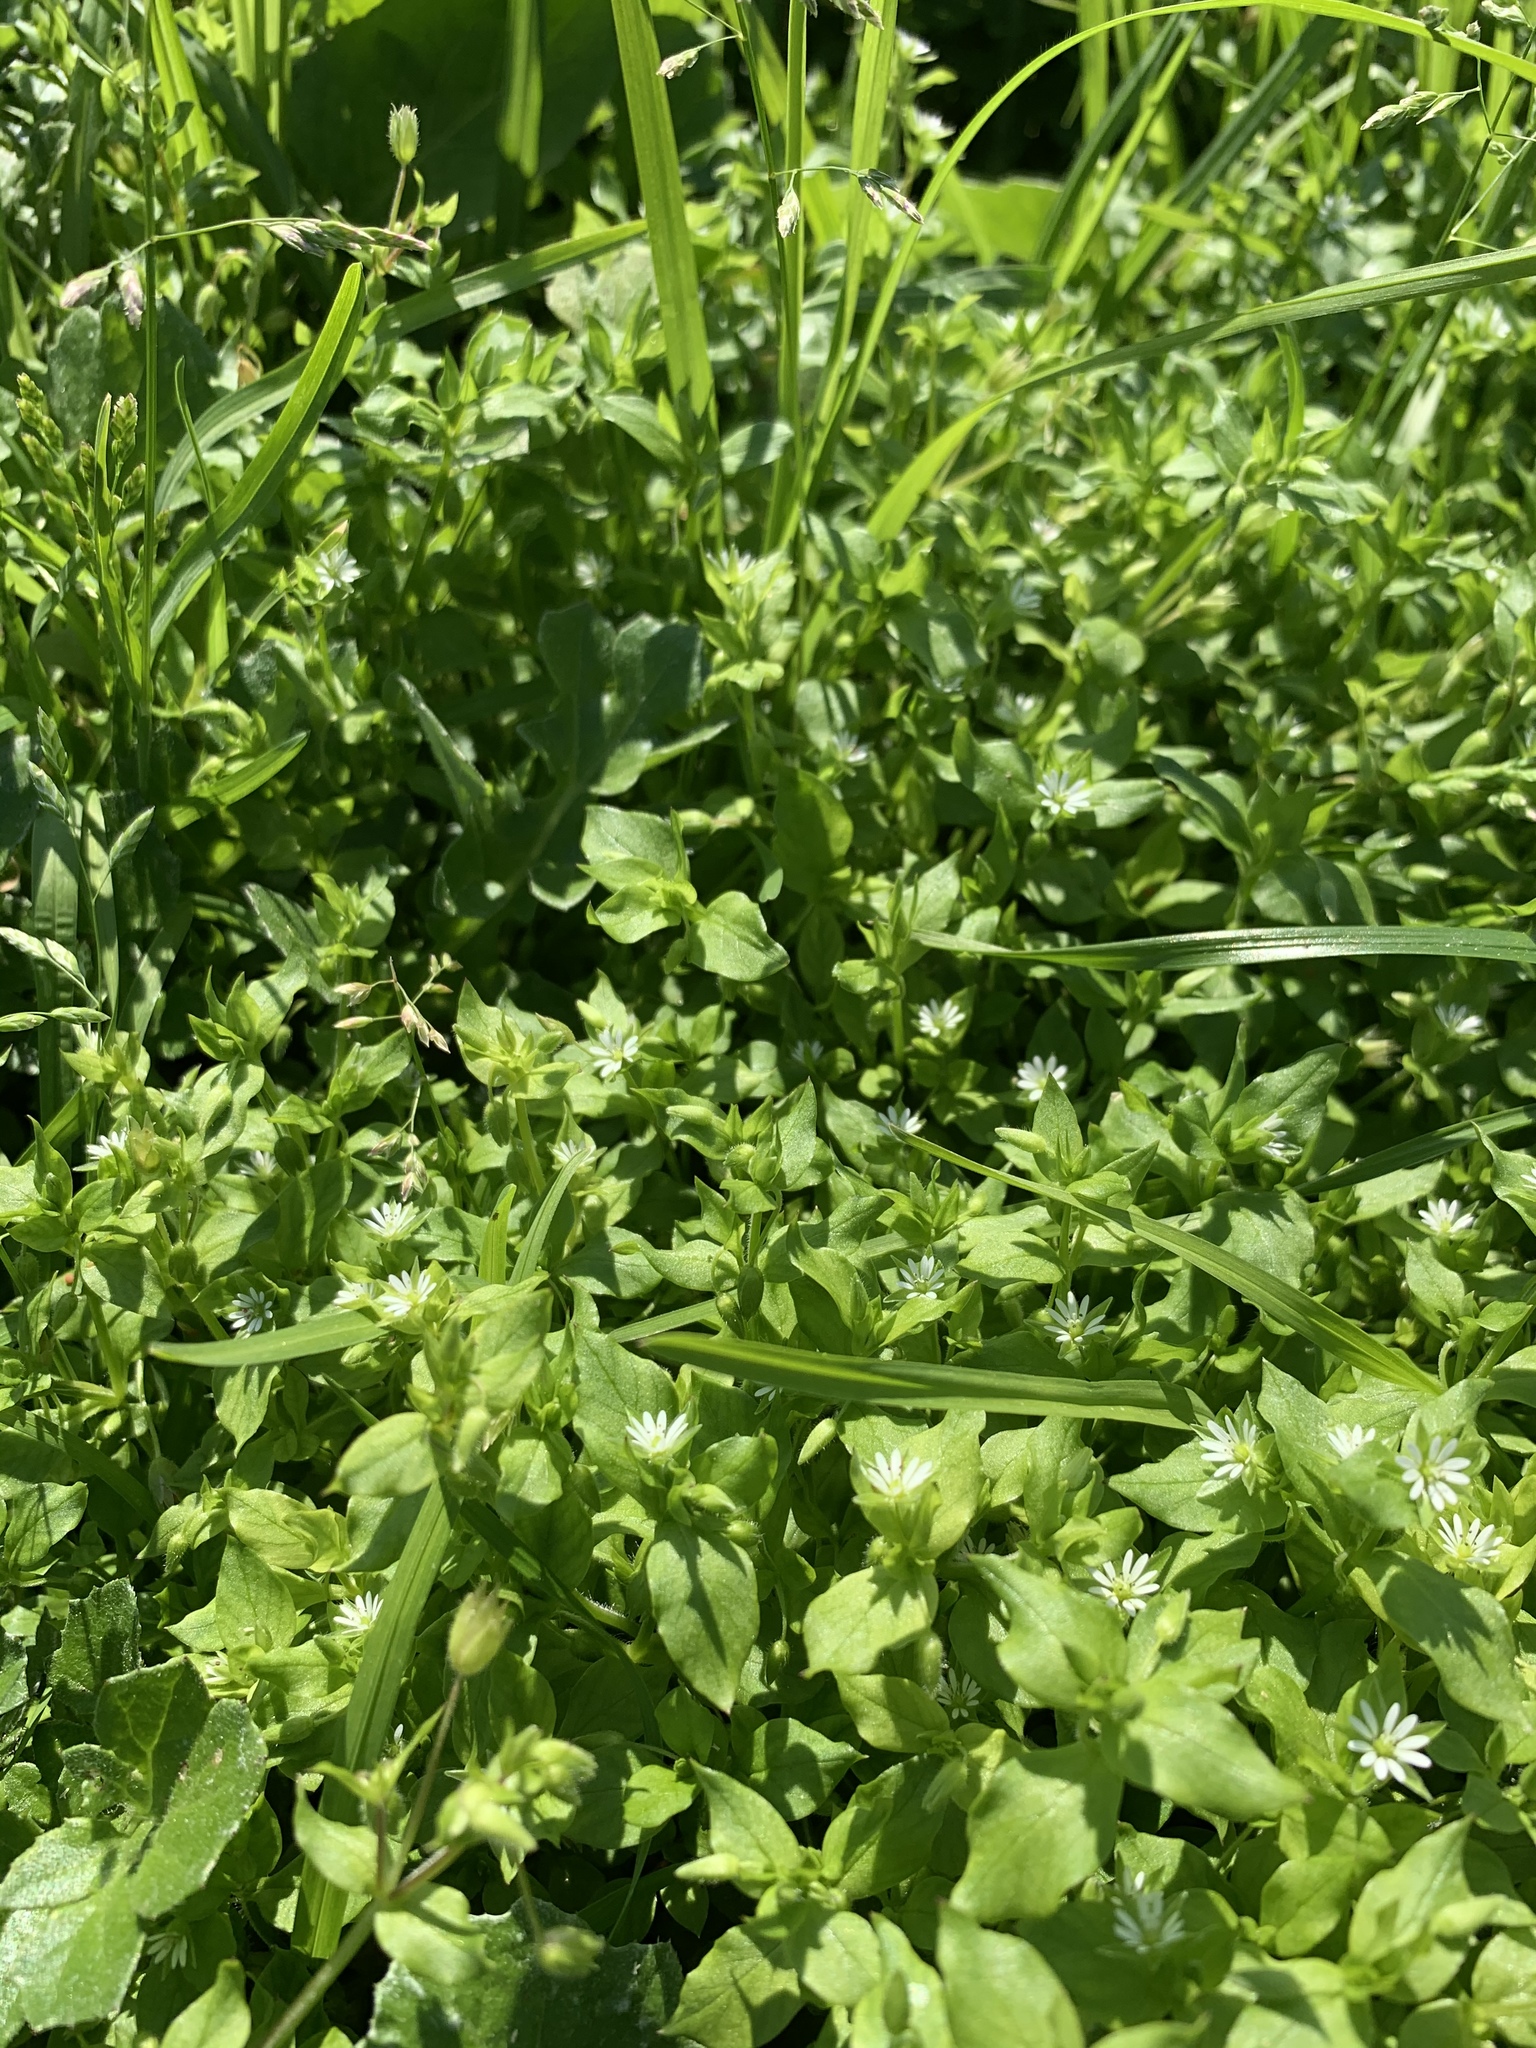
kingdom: Plantae
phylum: Tracheophyta
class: Magnoliopsida
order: Caryophyllales
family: Caryophyllaceae
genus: Stellaria
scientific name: Stellaria media
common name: Common chickweed
